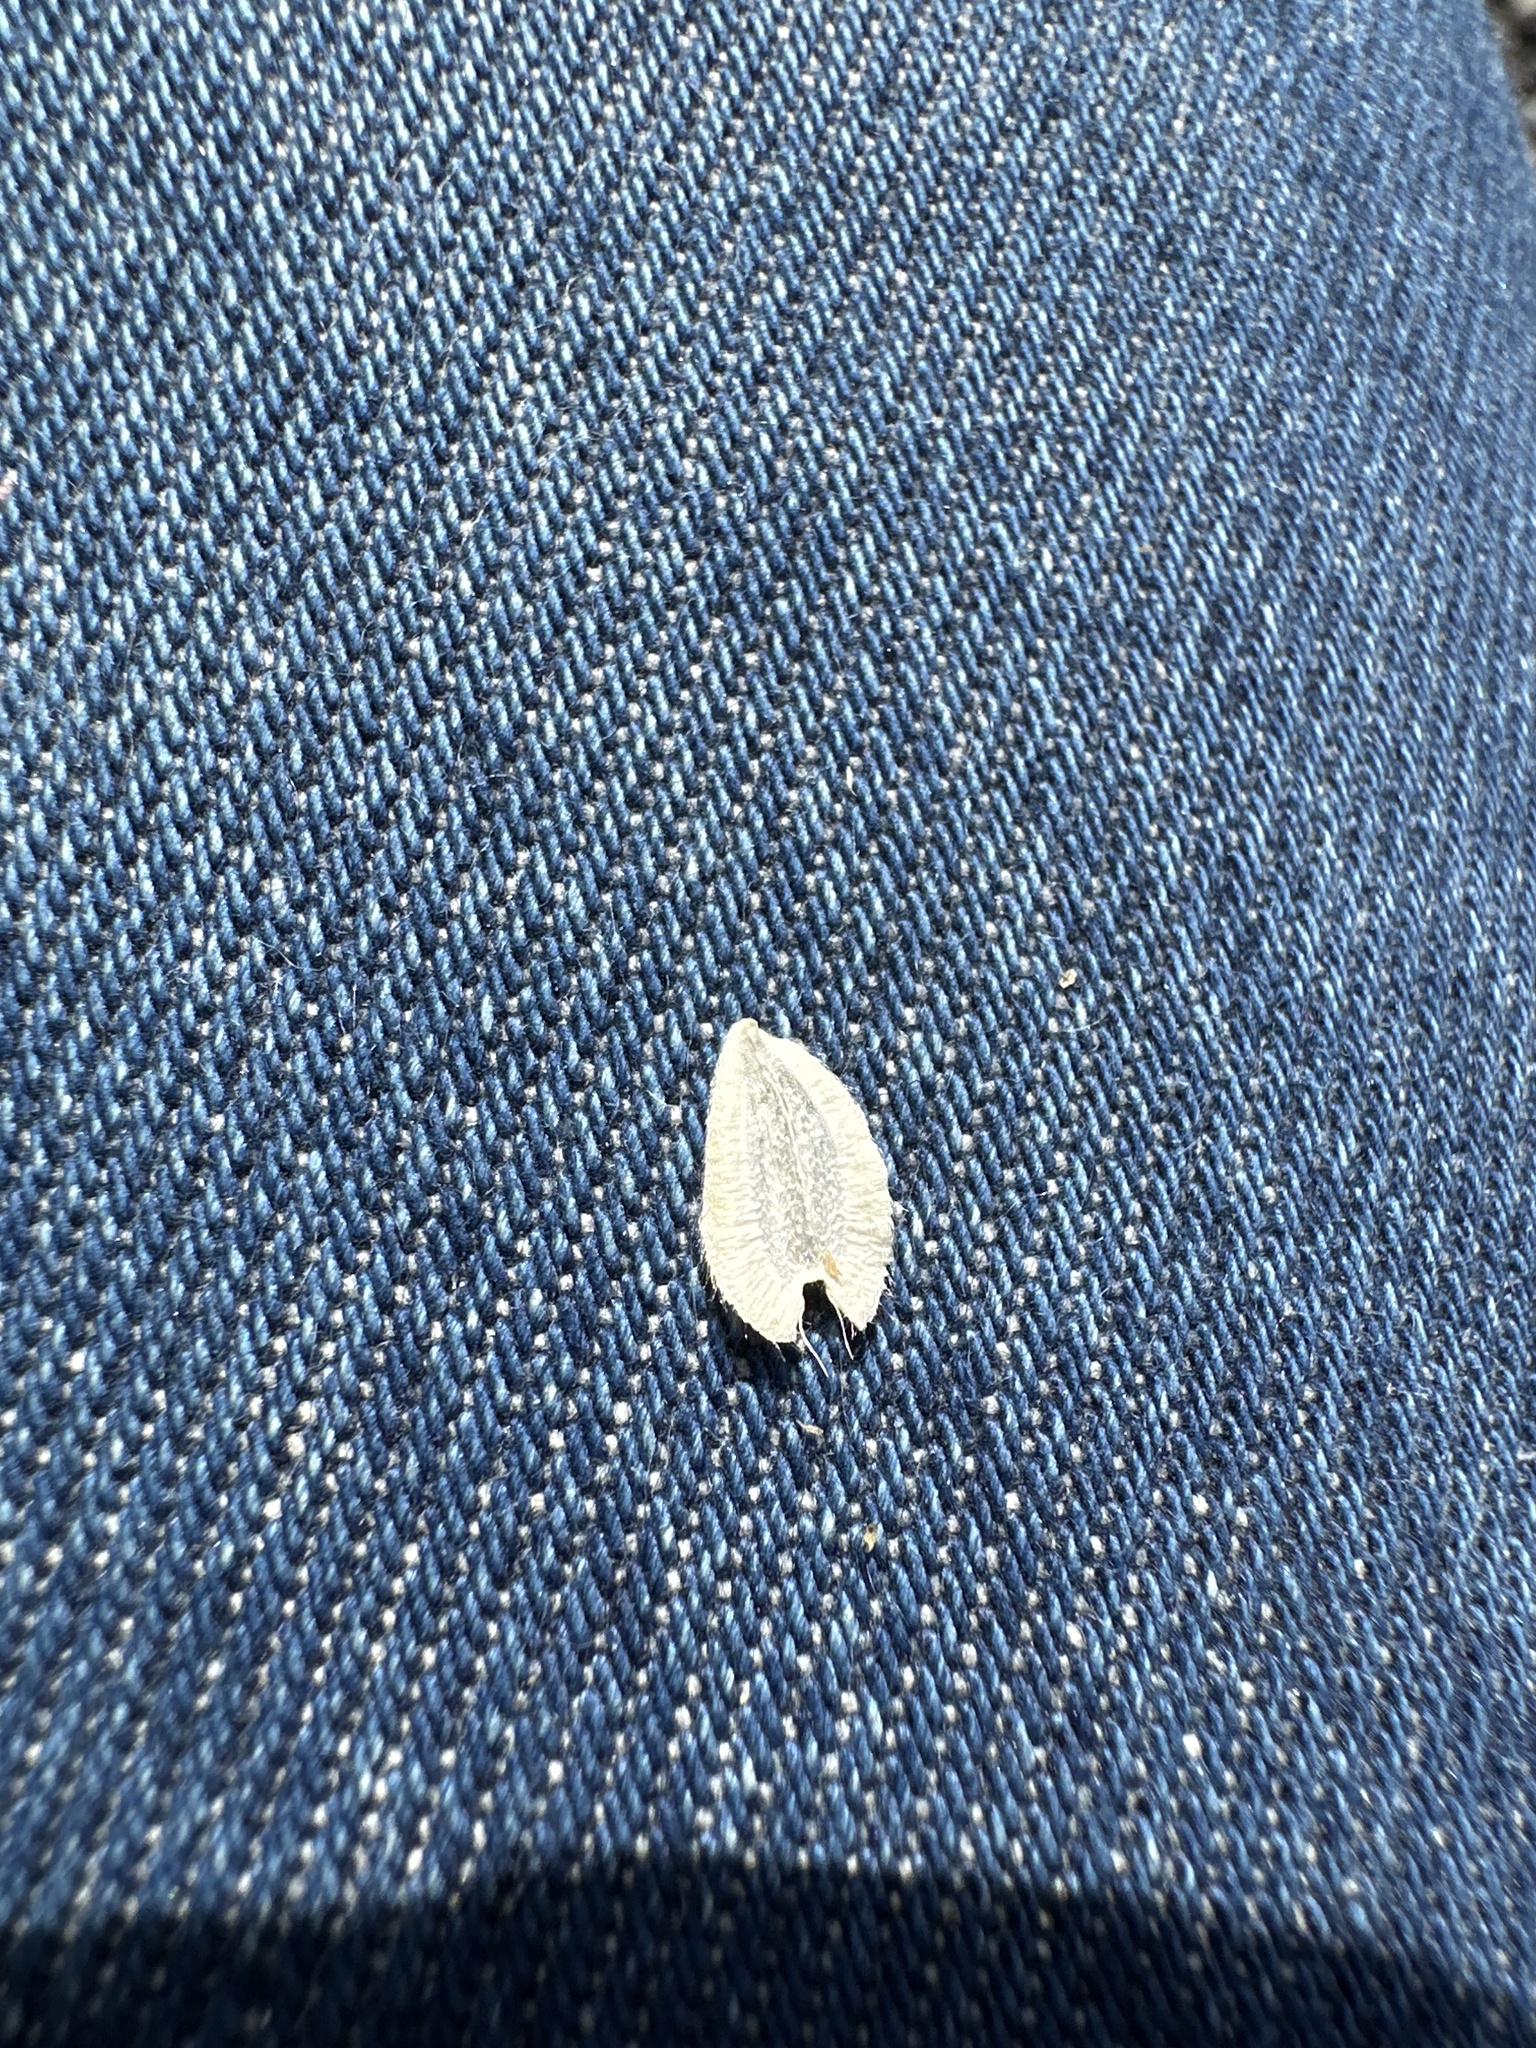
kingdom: Plantae
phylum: Tracheophyta
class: Magnoliopsida
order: Asterales
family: Asteraceae
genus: Verbesina
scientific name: Verbesina encelioides
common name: Golden crownbeard
